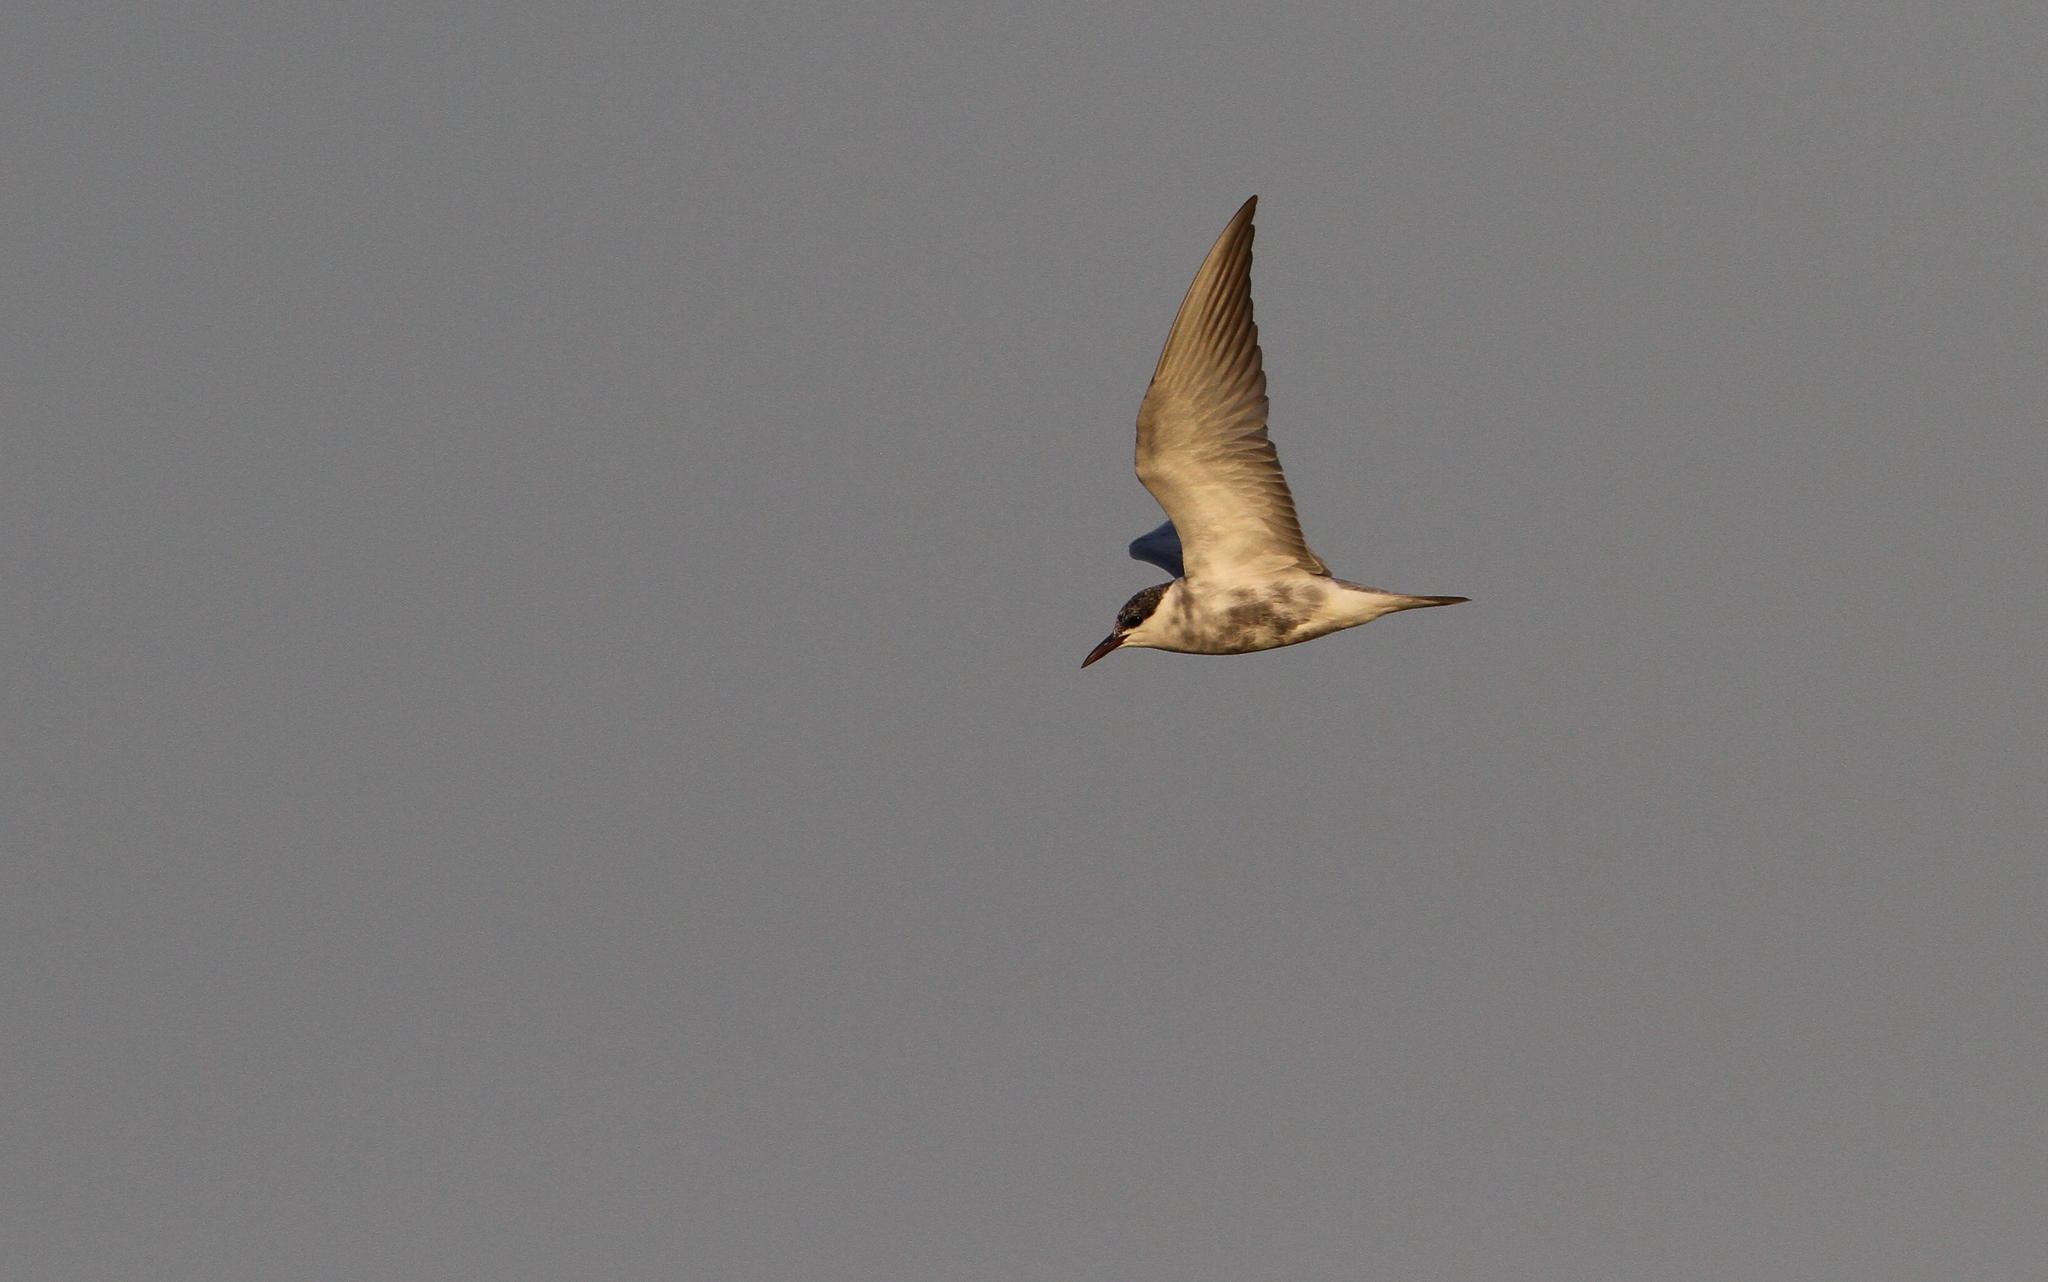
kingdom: Animalia
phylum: Chordata
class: Aves
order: Charadriiformes
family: Laridae
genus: Chlidonias
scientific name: Chlidonias hybrida
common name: Whiskered tern
